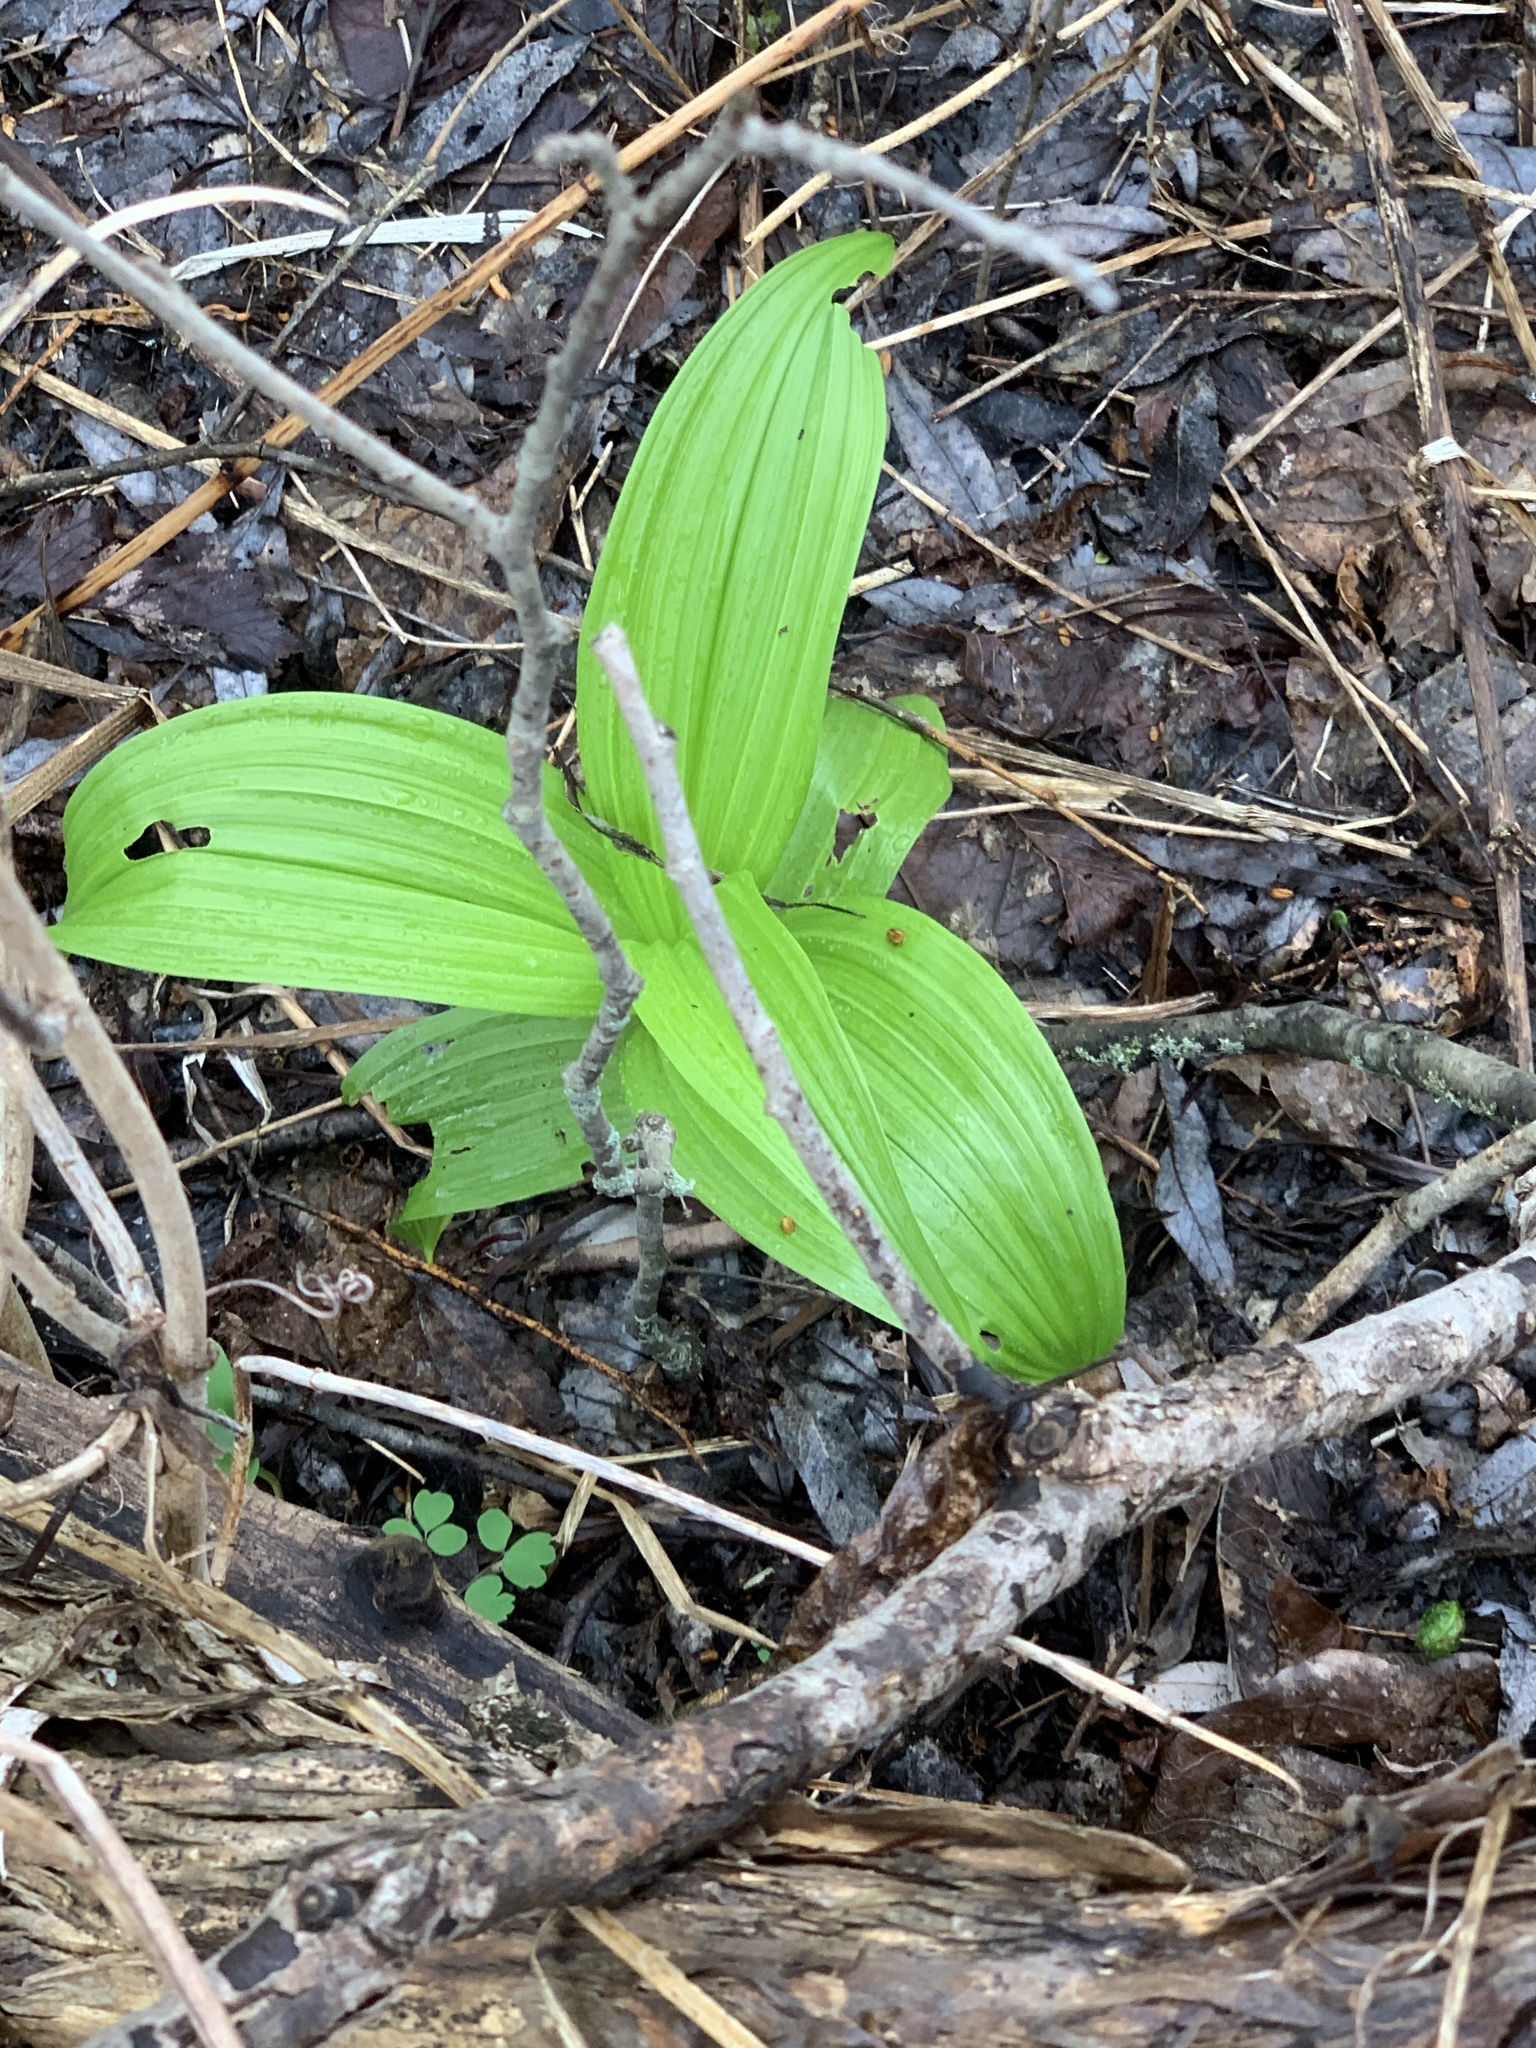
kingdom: Plantae
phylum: Tracheophyta
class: Liliopsida
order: Liliales
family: Melanthiaceae
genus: Veratrum
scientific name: Veratrum viride
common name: American false hellebore
